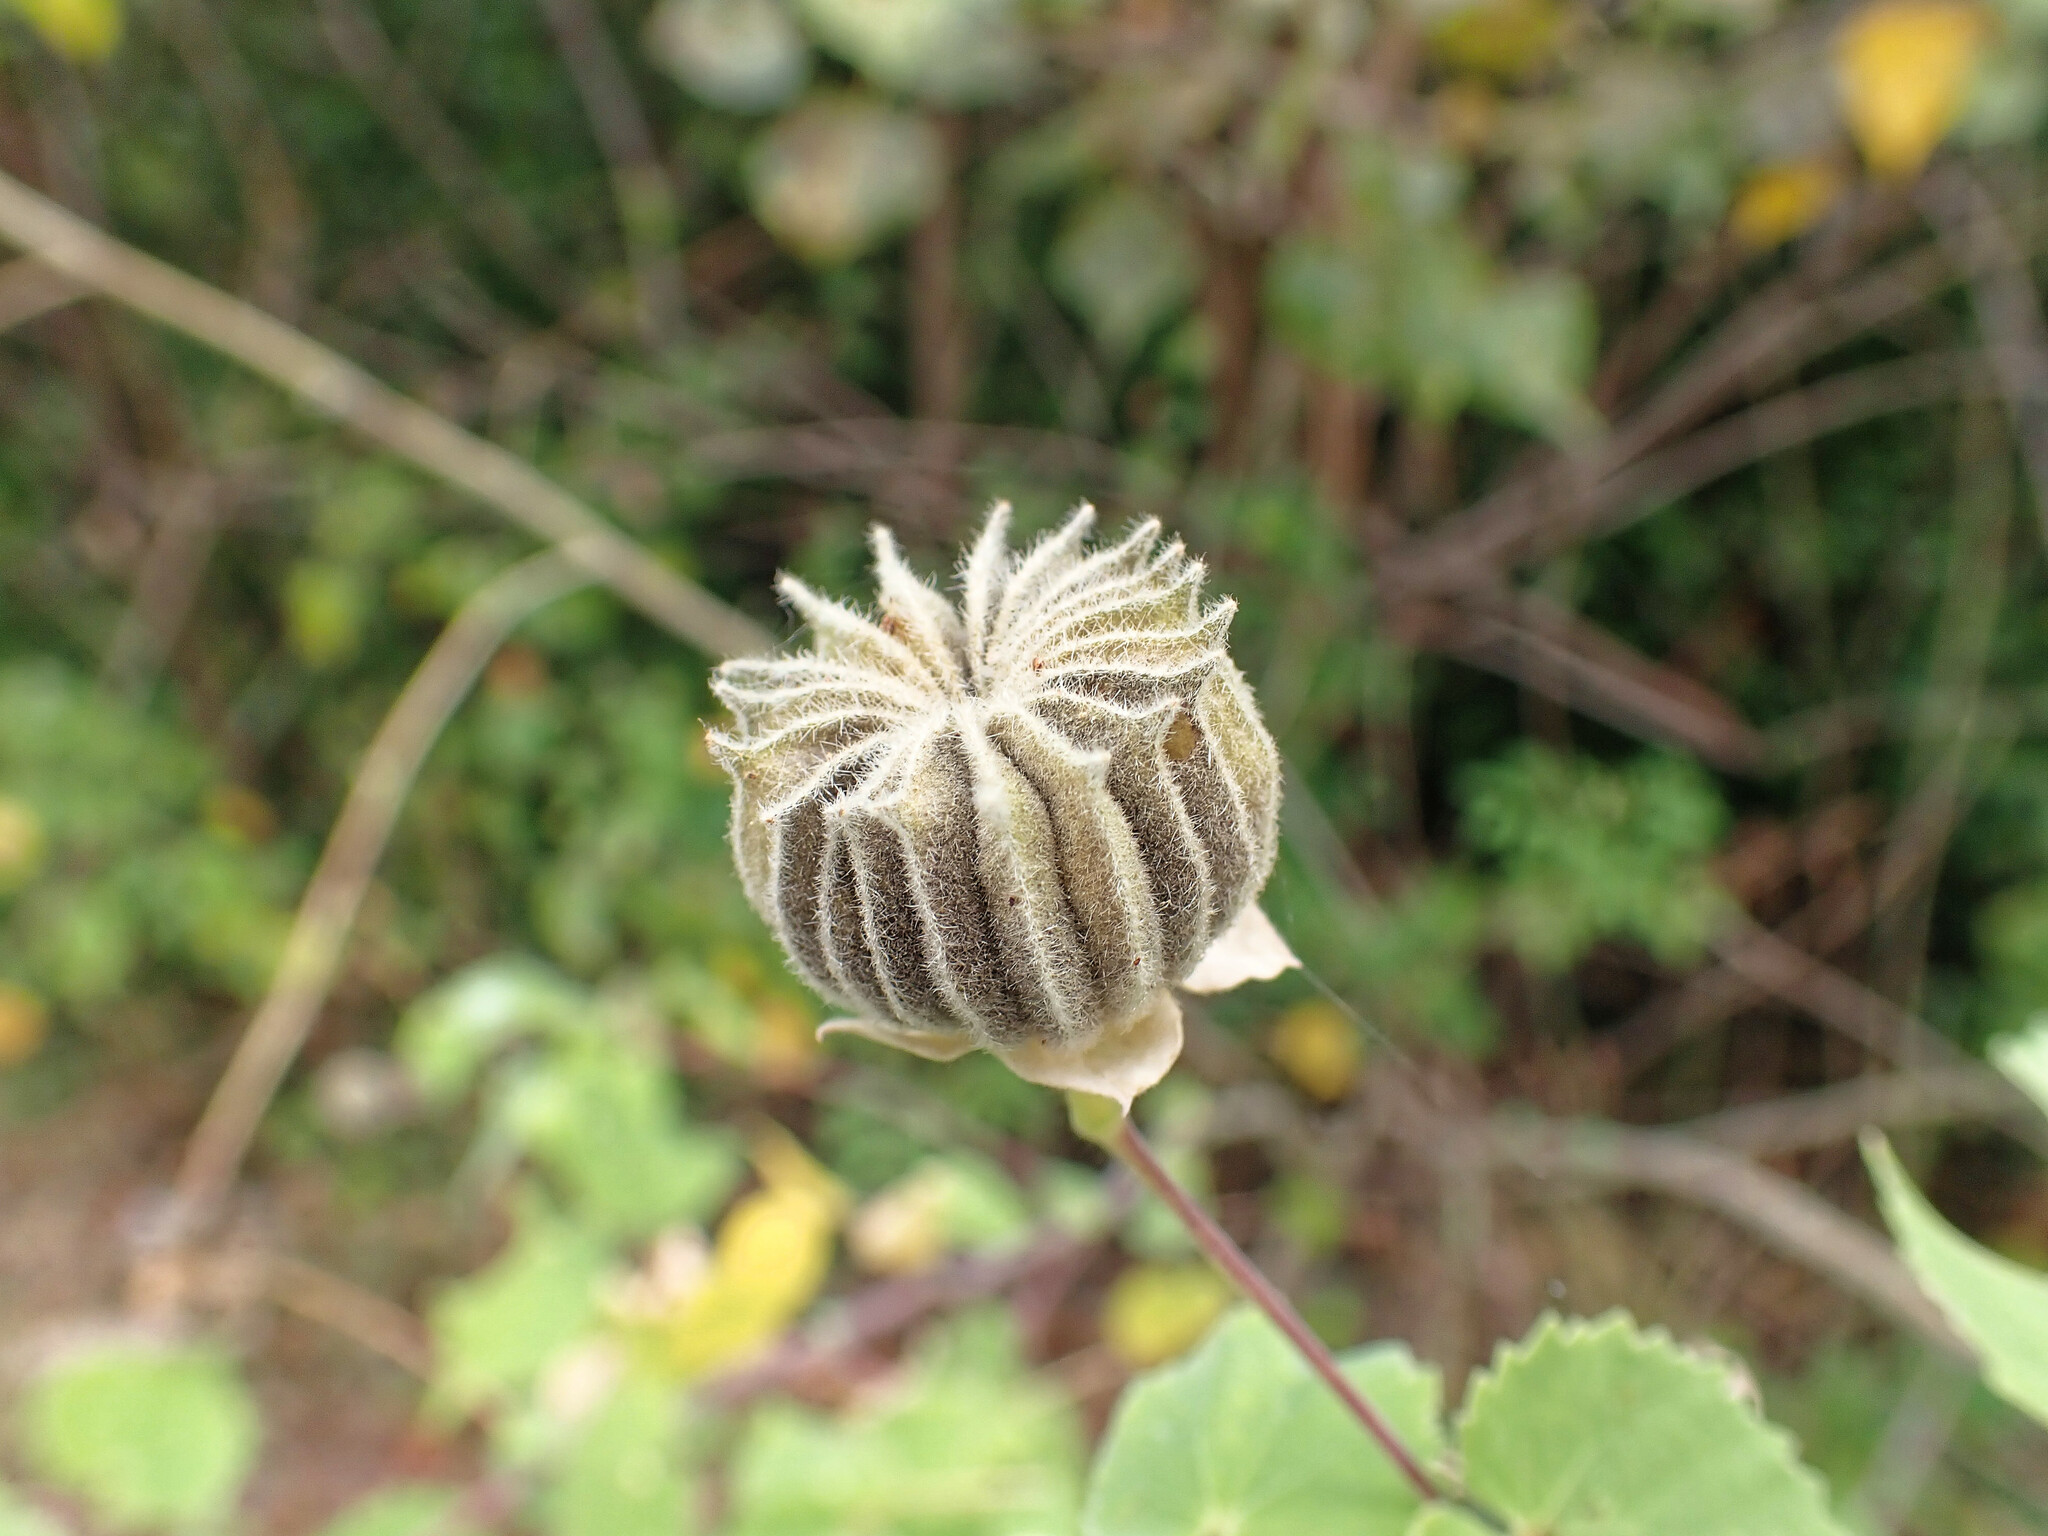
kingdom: Plantae
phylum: Tracheophyta
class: Magnoliopsida
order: Malvales
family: Malvaceae
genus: Abutilon
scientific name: Abutilon indicum
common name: Indian abutilon
